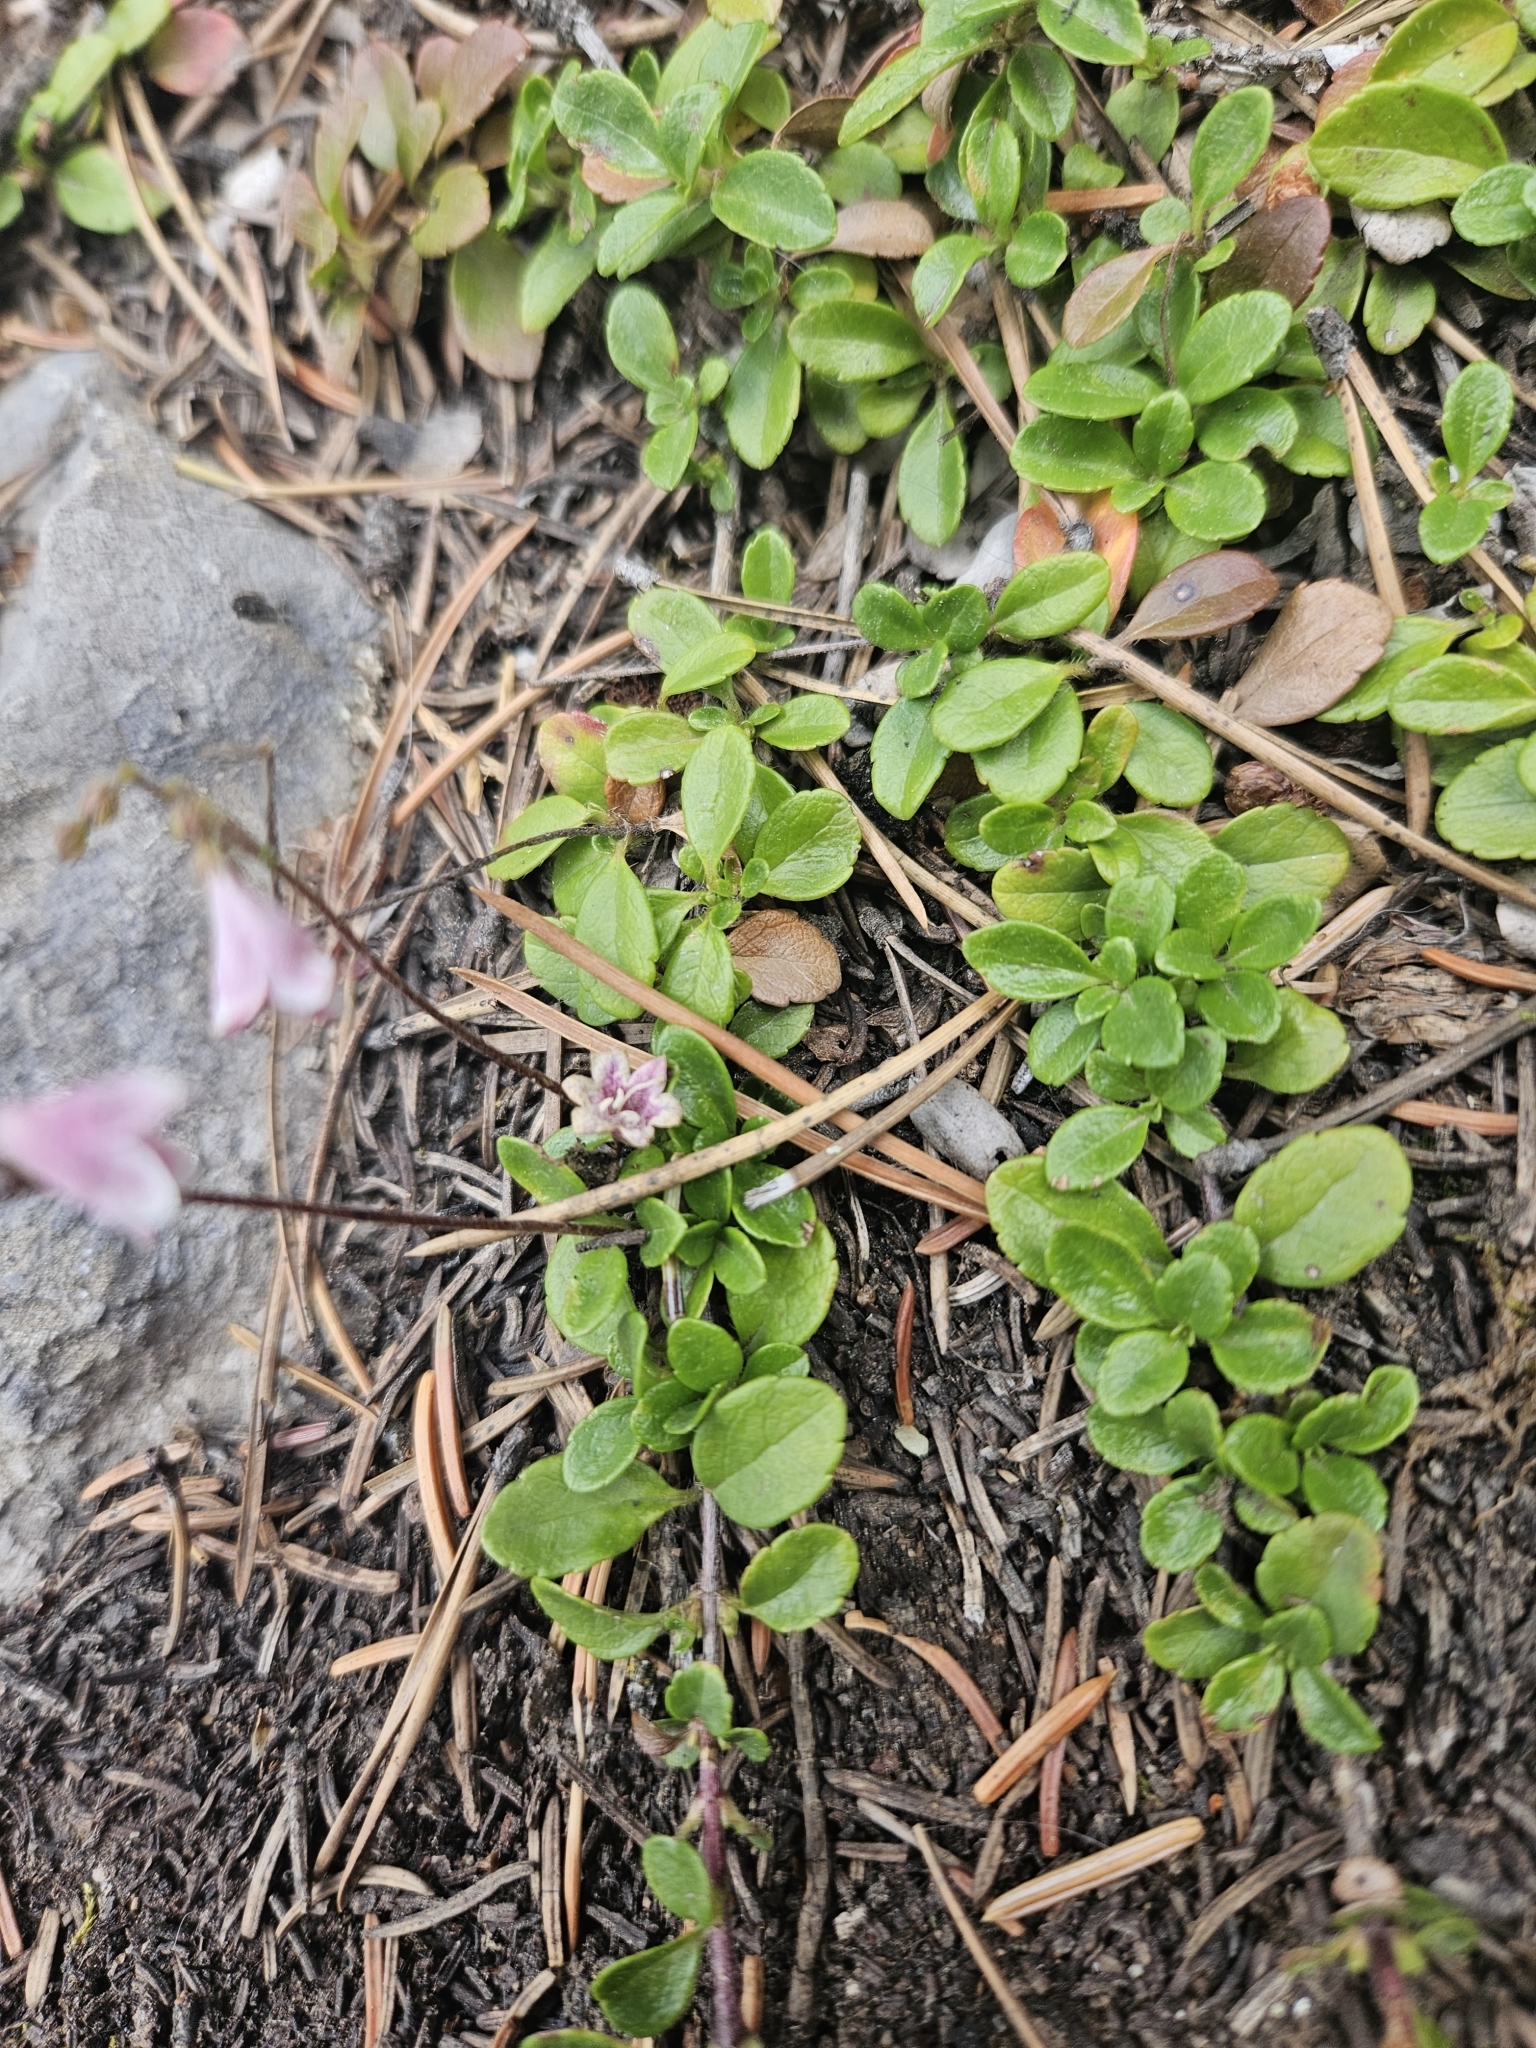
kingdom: Plantae
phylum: Tracheophyta
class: Magnoliopsida
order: Dipsacales
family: Caprifoliaceae
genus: Linnaea
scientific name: Linnaea borealis
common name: Twinflower
